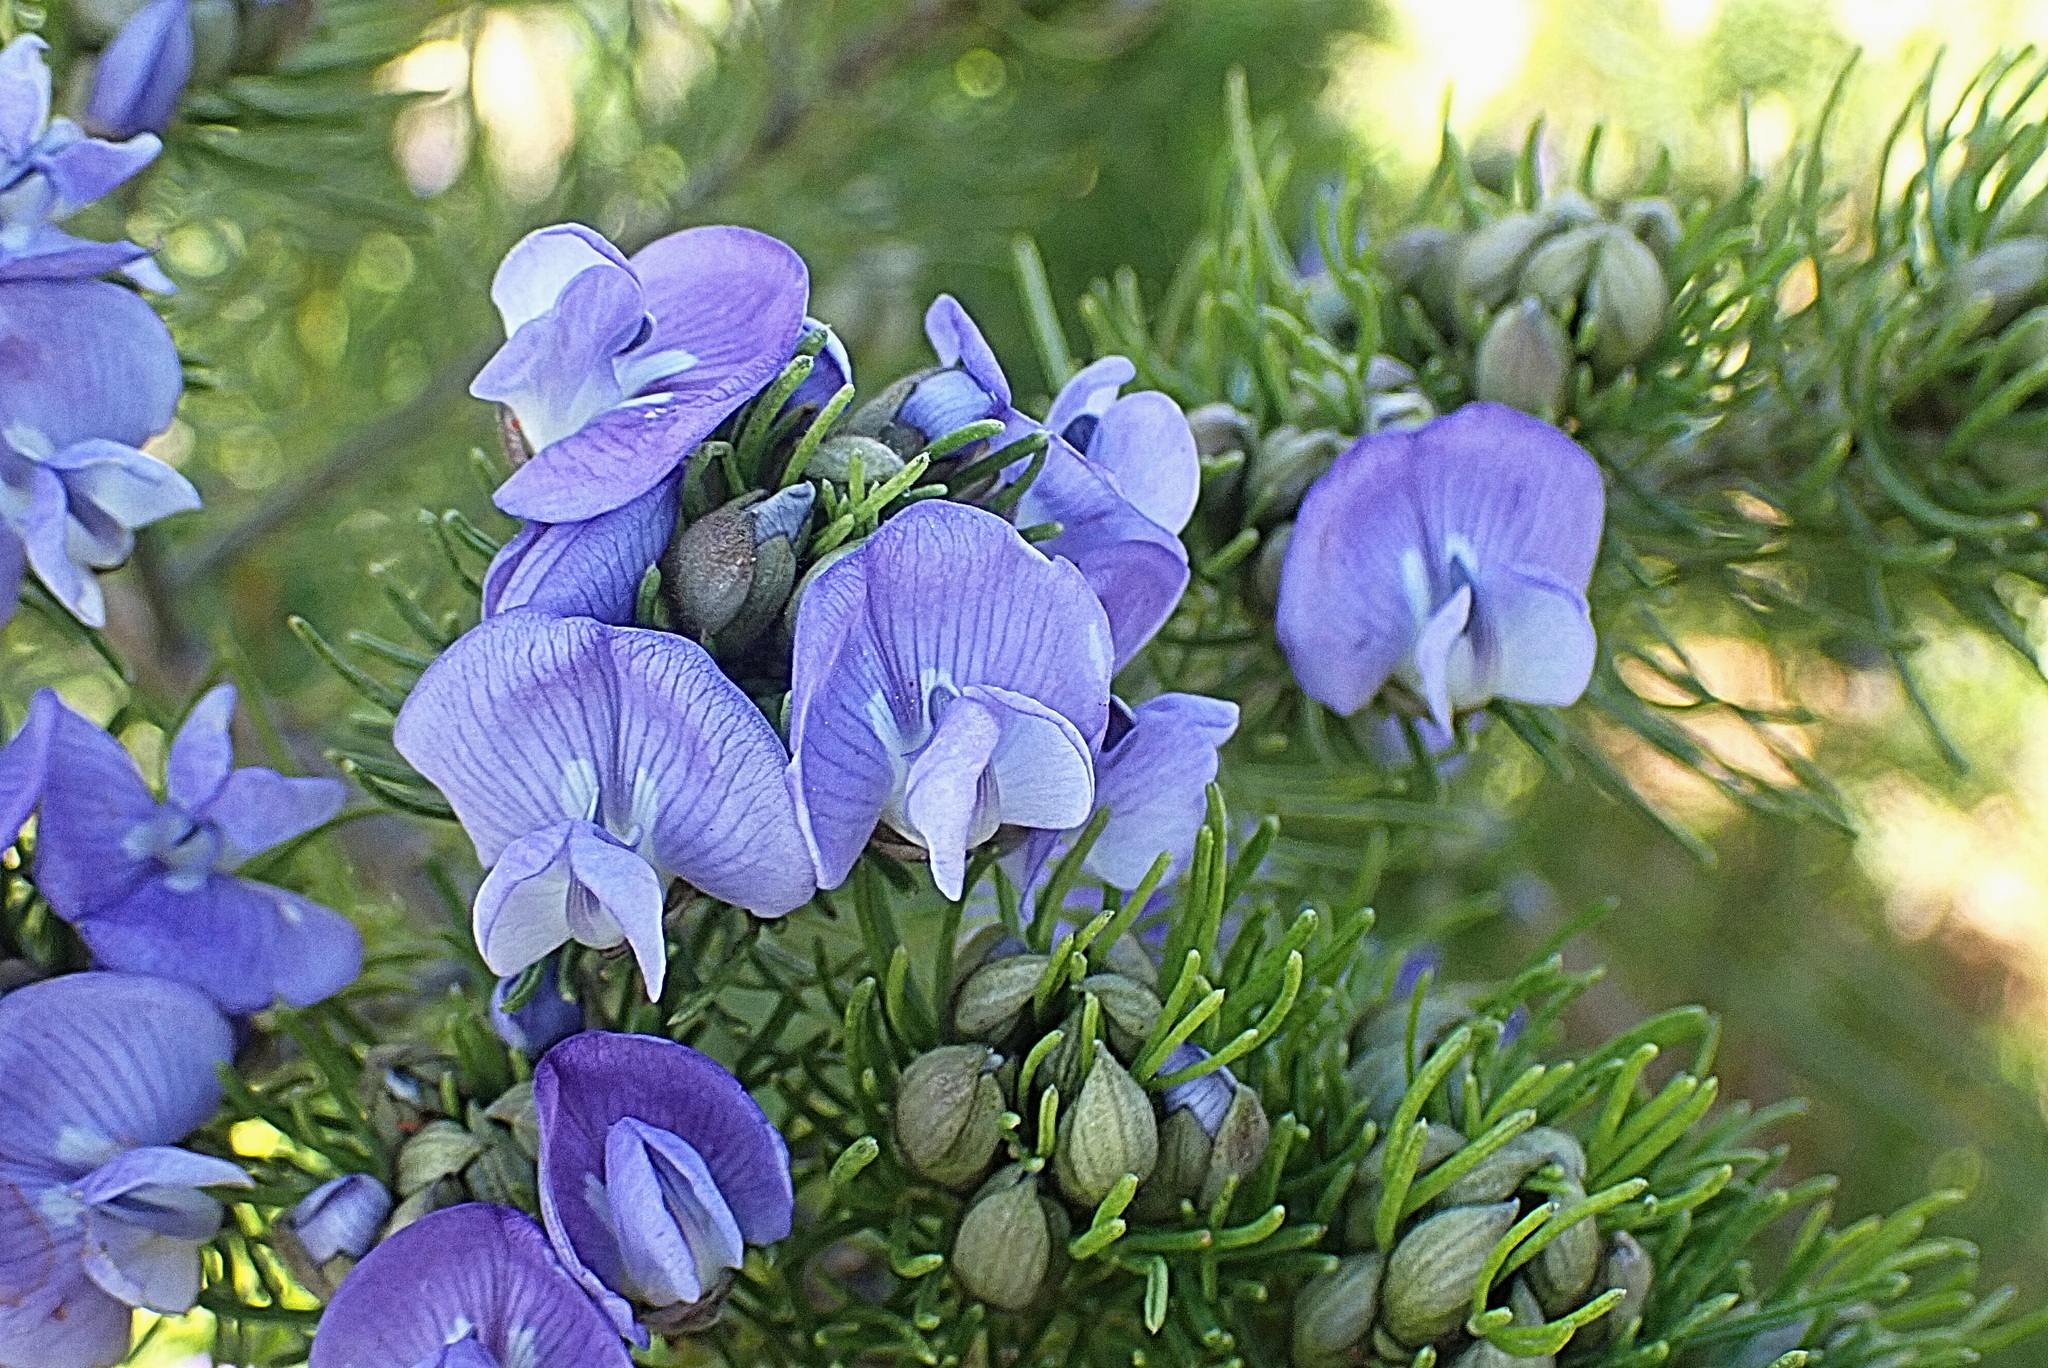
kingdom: Plantae
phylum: Tracheophyta
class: Magnoliopsida
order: Fabales
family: Fabaceae
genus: Psoralea
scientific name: Psoralea speciosa
